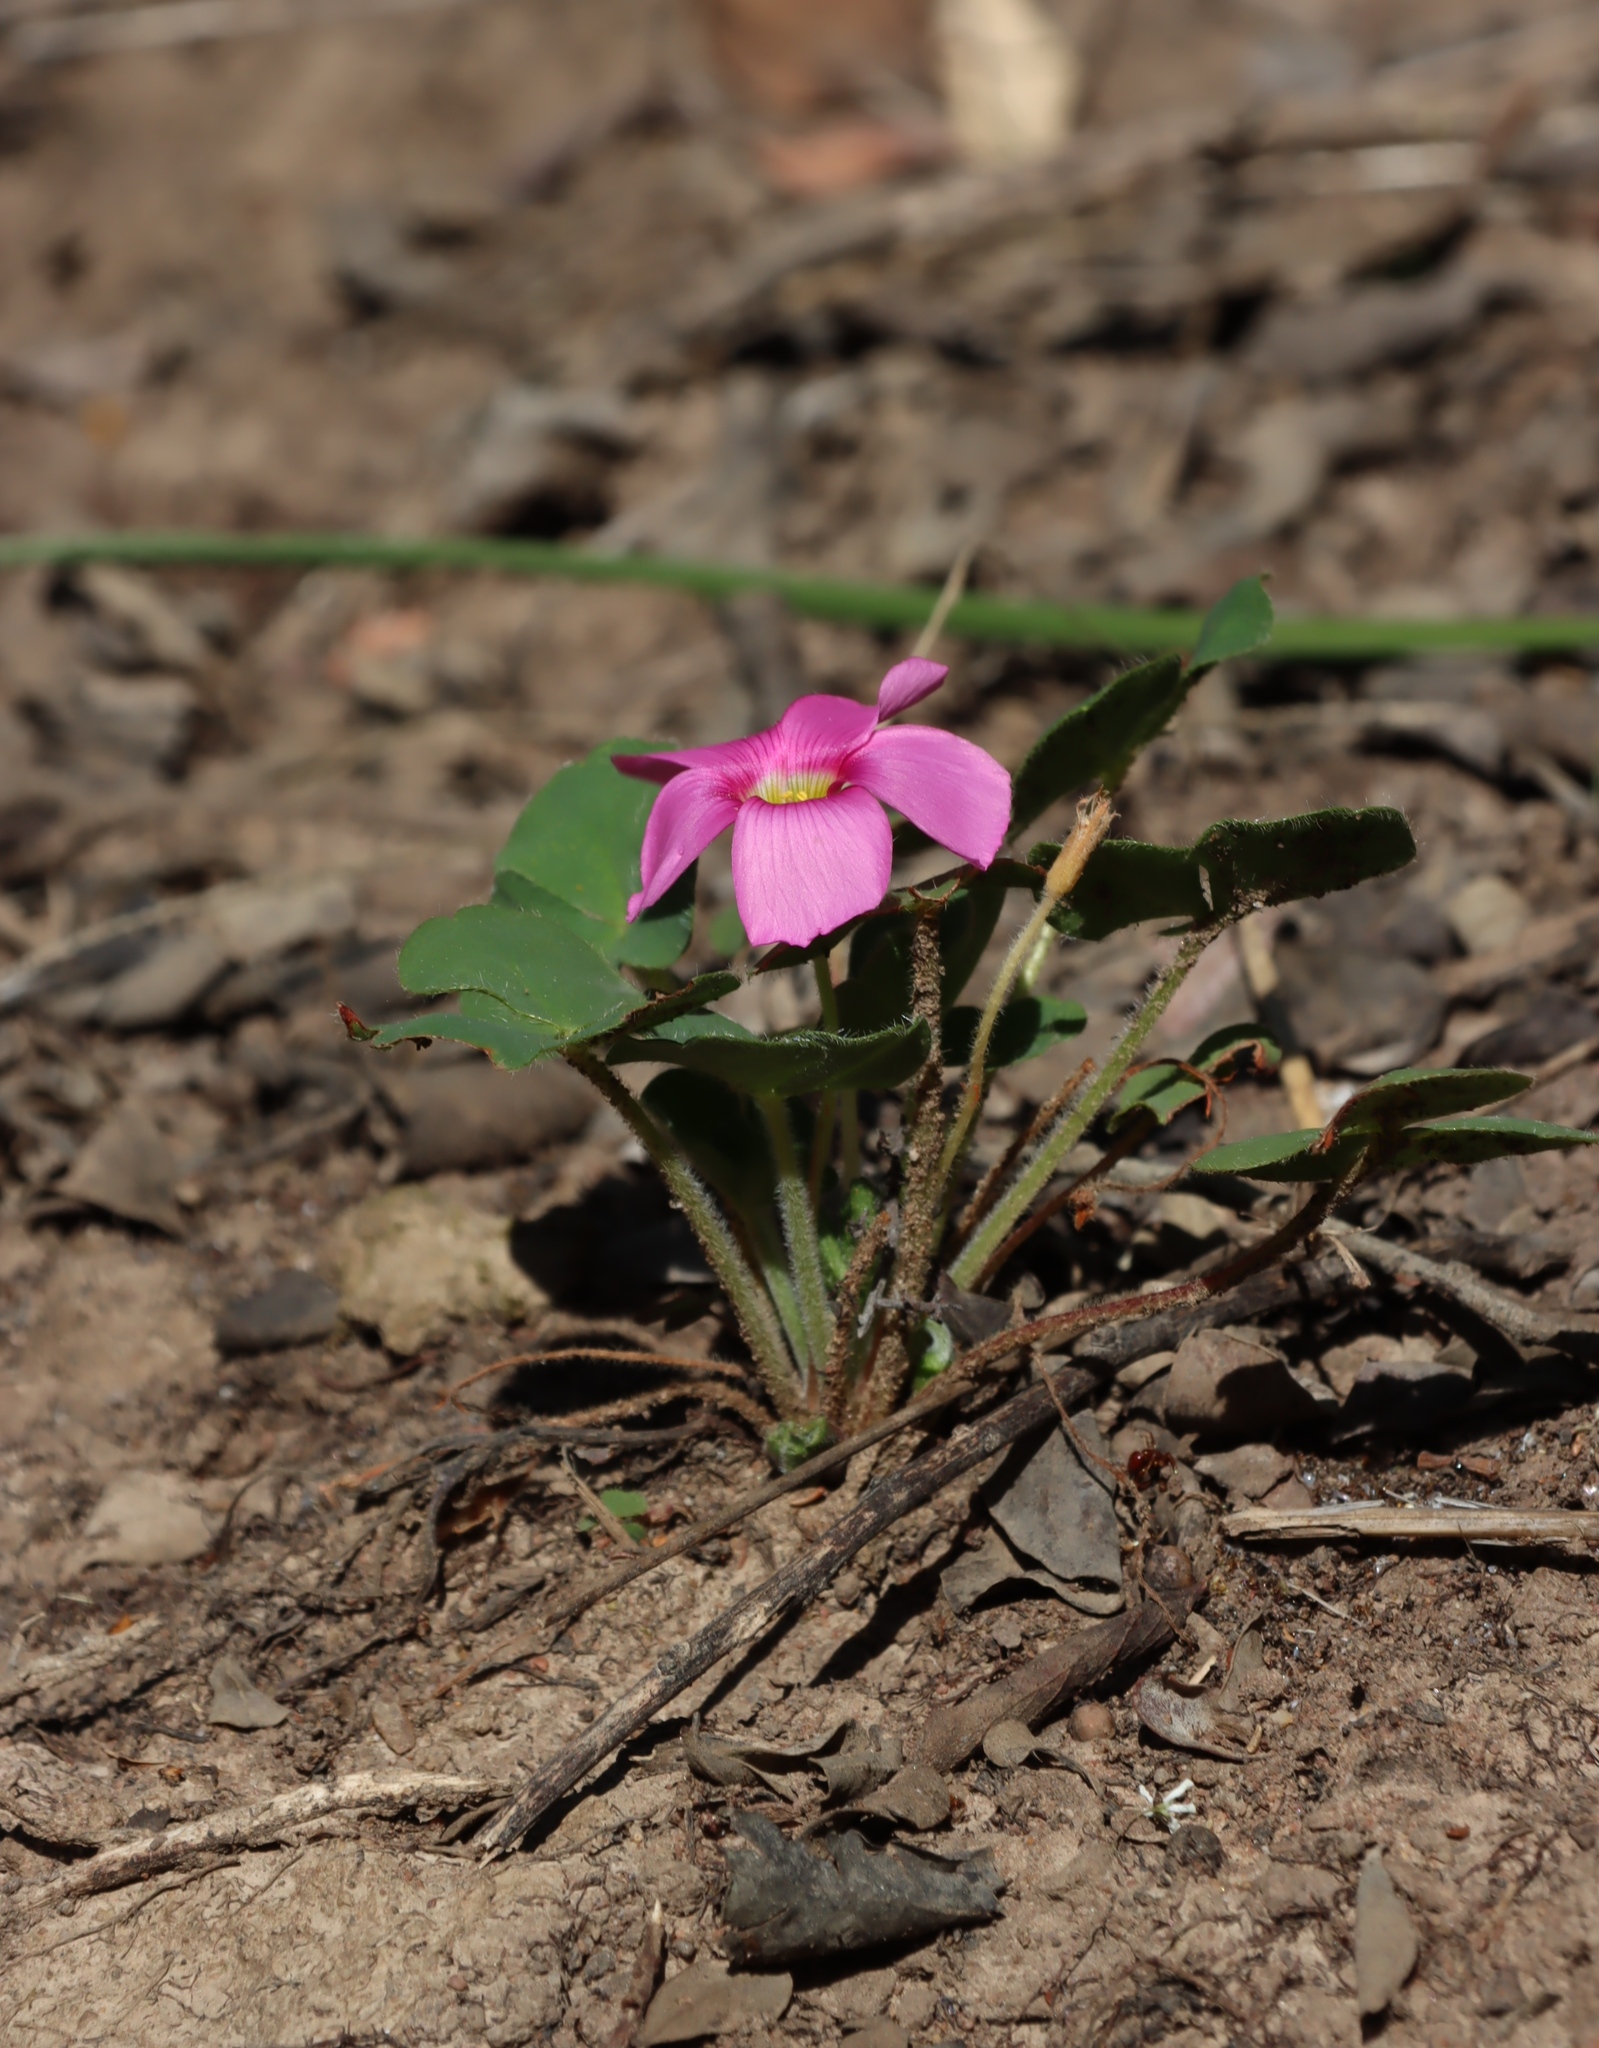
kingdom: Plantae
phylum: Tracheophyta
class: Magnoliopsida
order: Oxalidales
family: Oxalidaceae
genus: Oxalis
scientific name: Oxalis imbricata
